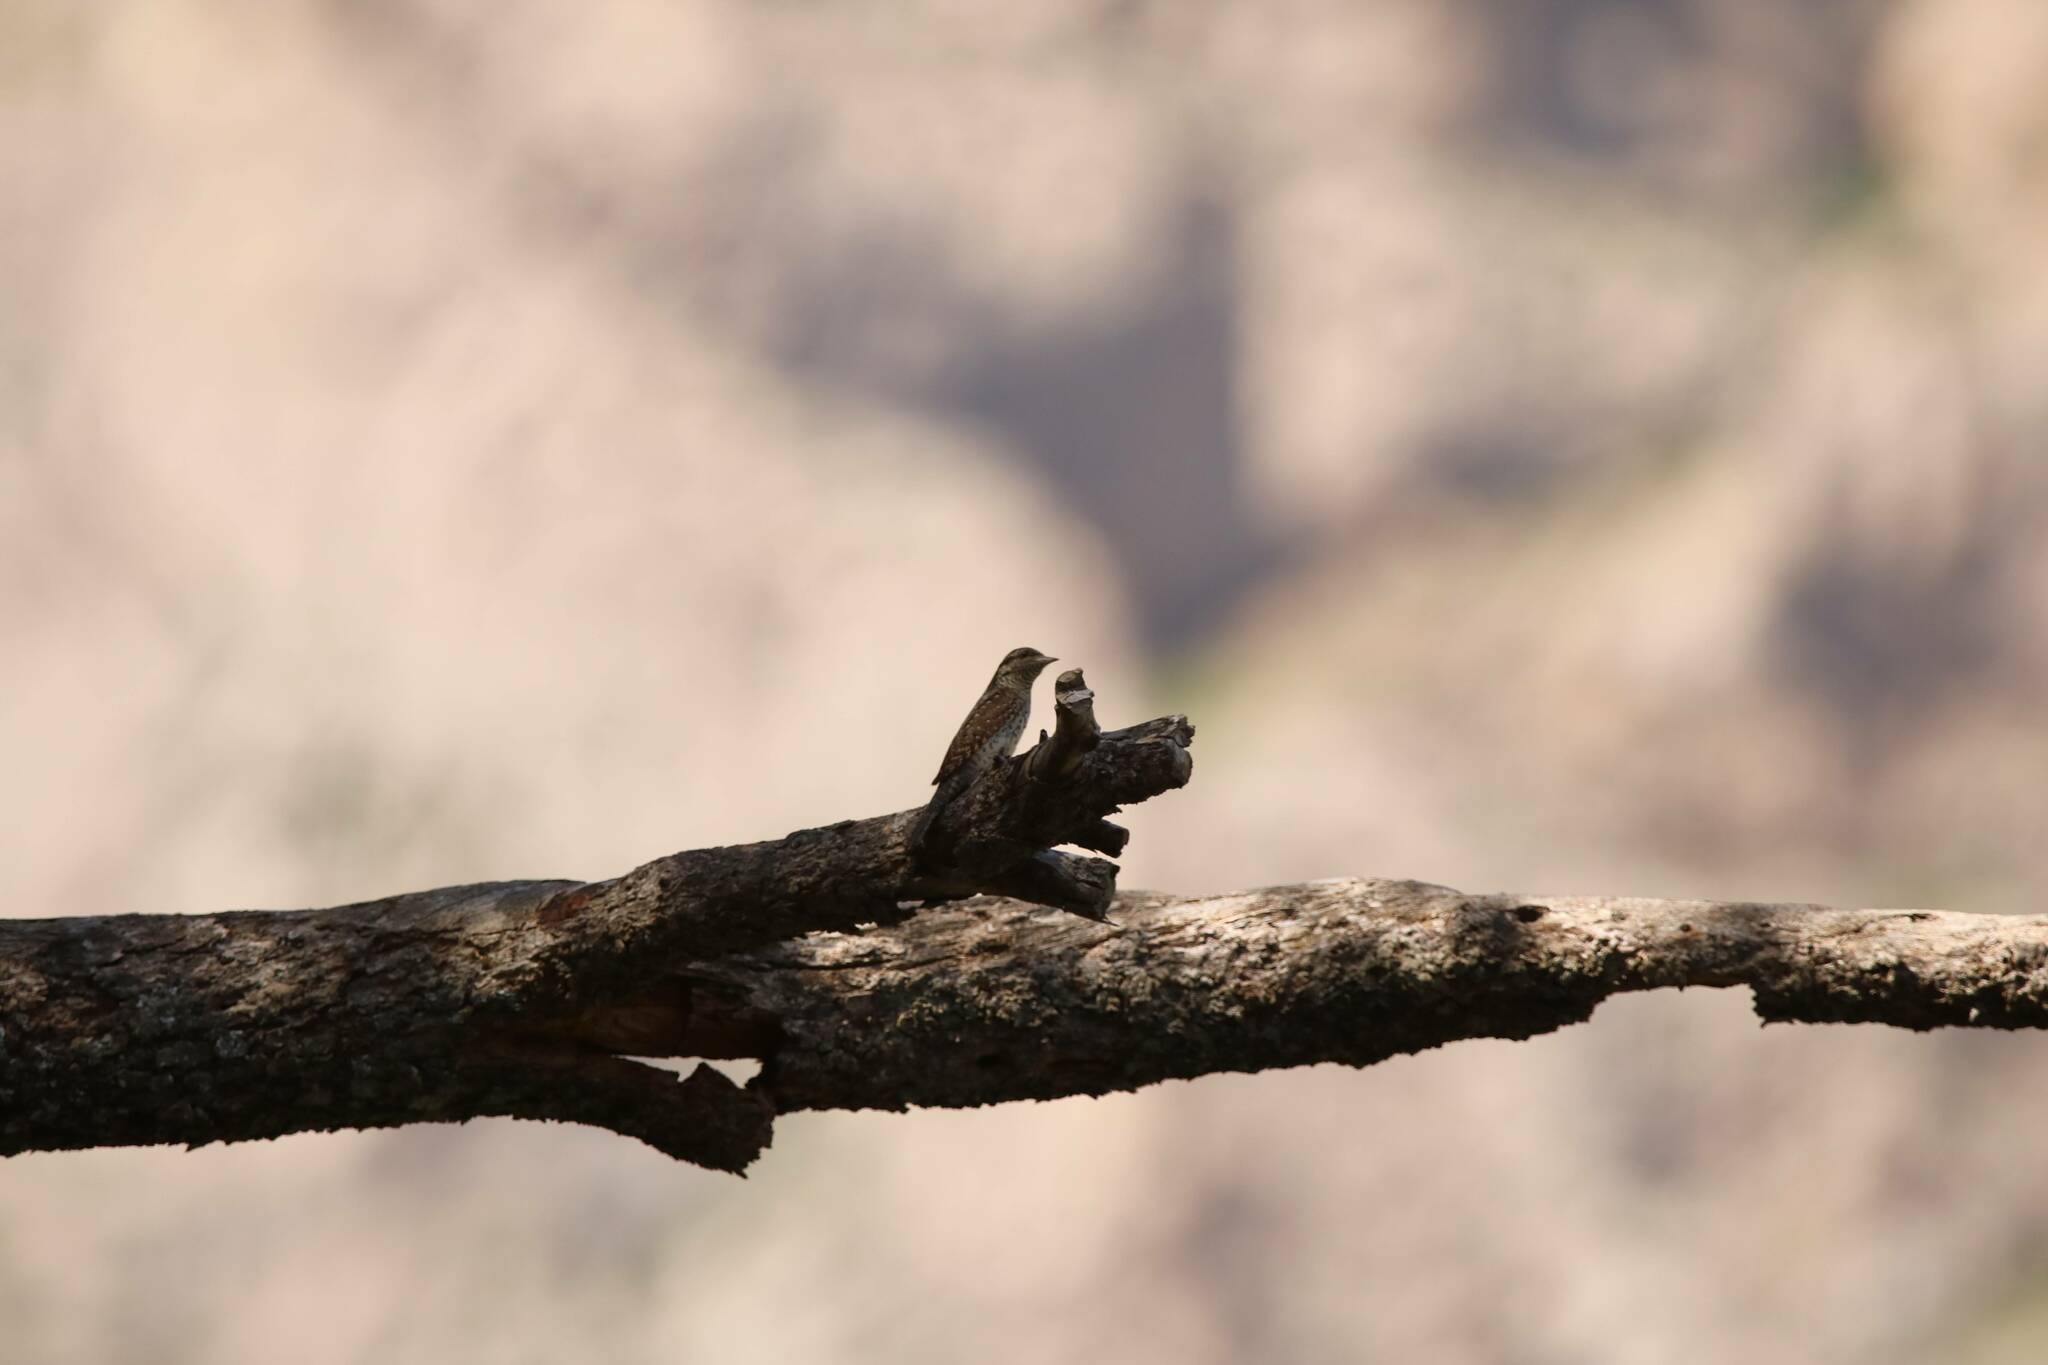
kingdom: Animalia
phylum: Chordata
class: Aves
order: Piciformes
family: Picidae
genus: Jynx
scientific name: Jynx torquilla
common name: Eurasian wryneck
